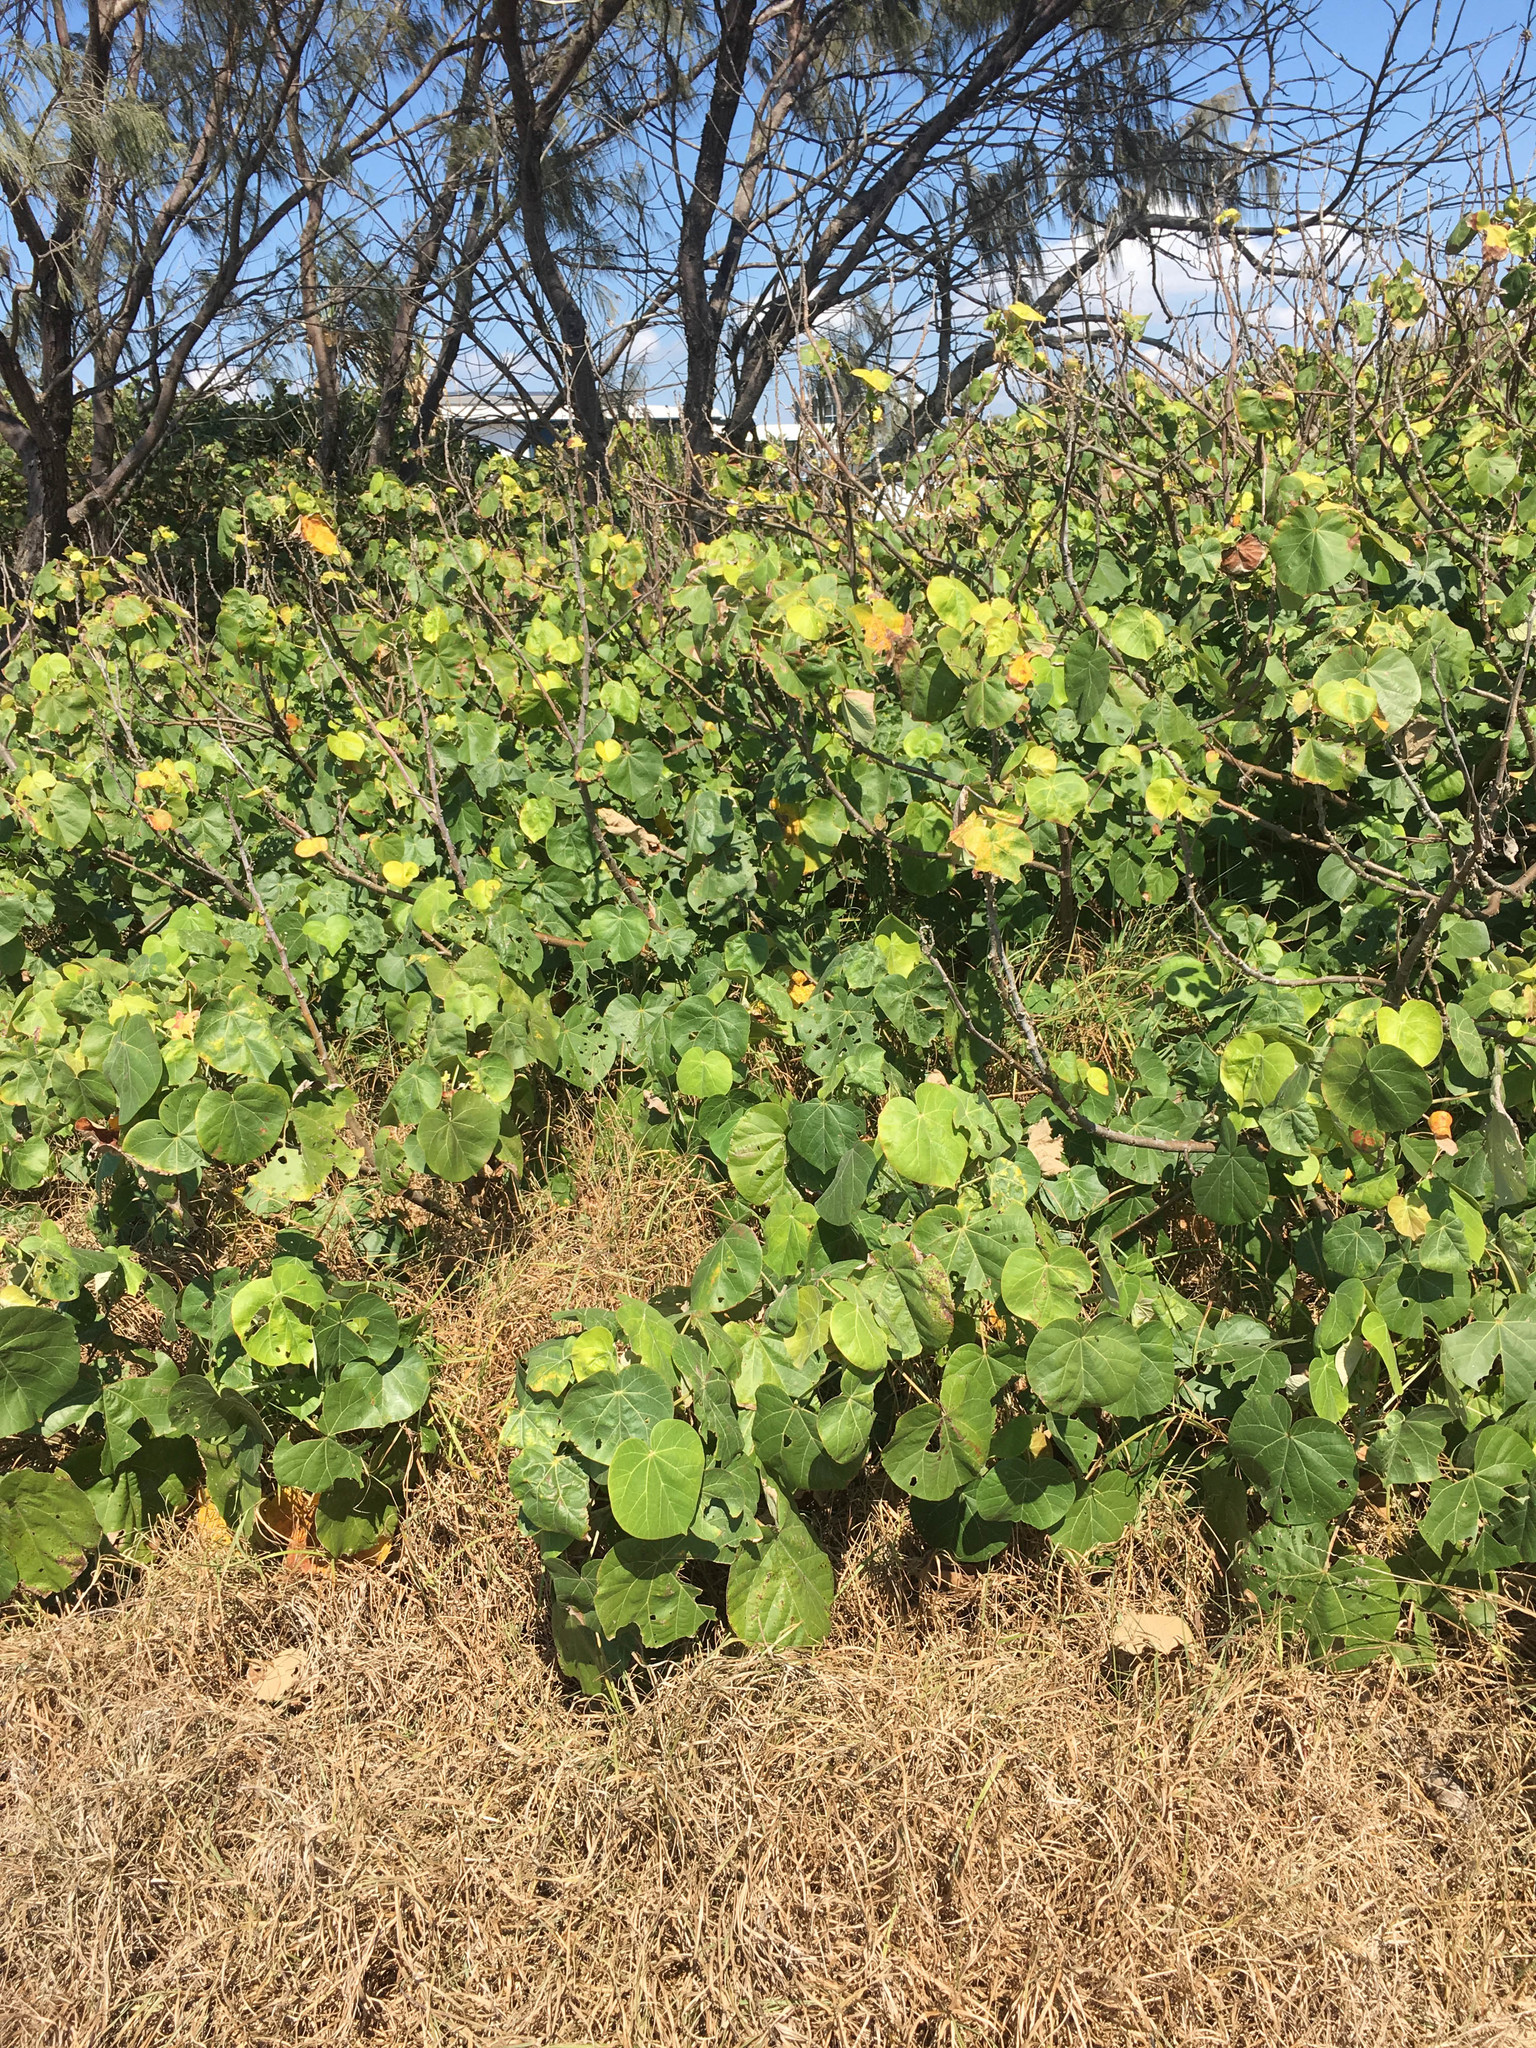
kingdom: Plantae
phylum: Tracheophyta
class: Magnoliopsida
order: Malvales
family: Malvaceae
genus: Talipariti
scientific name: Talipariti tiliaceum
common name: Sea hibiscus
